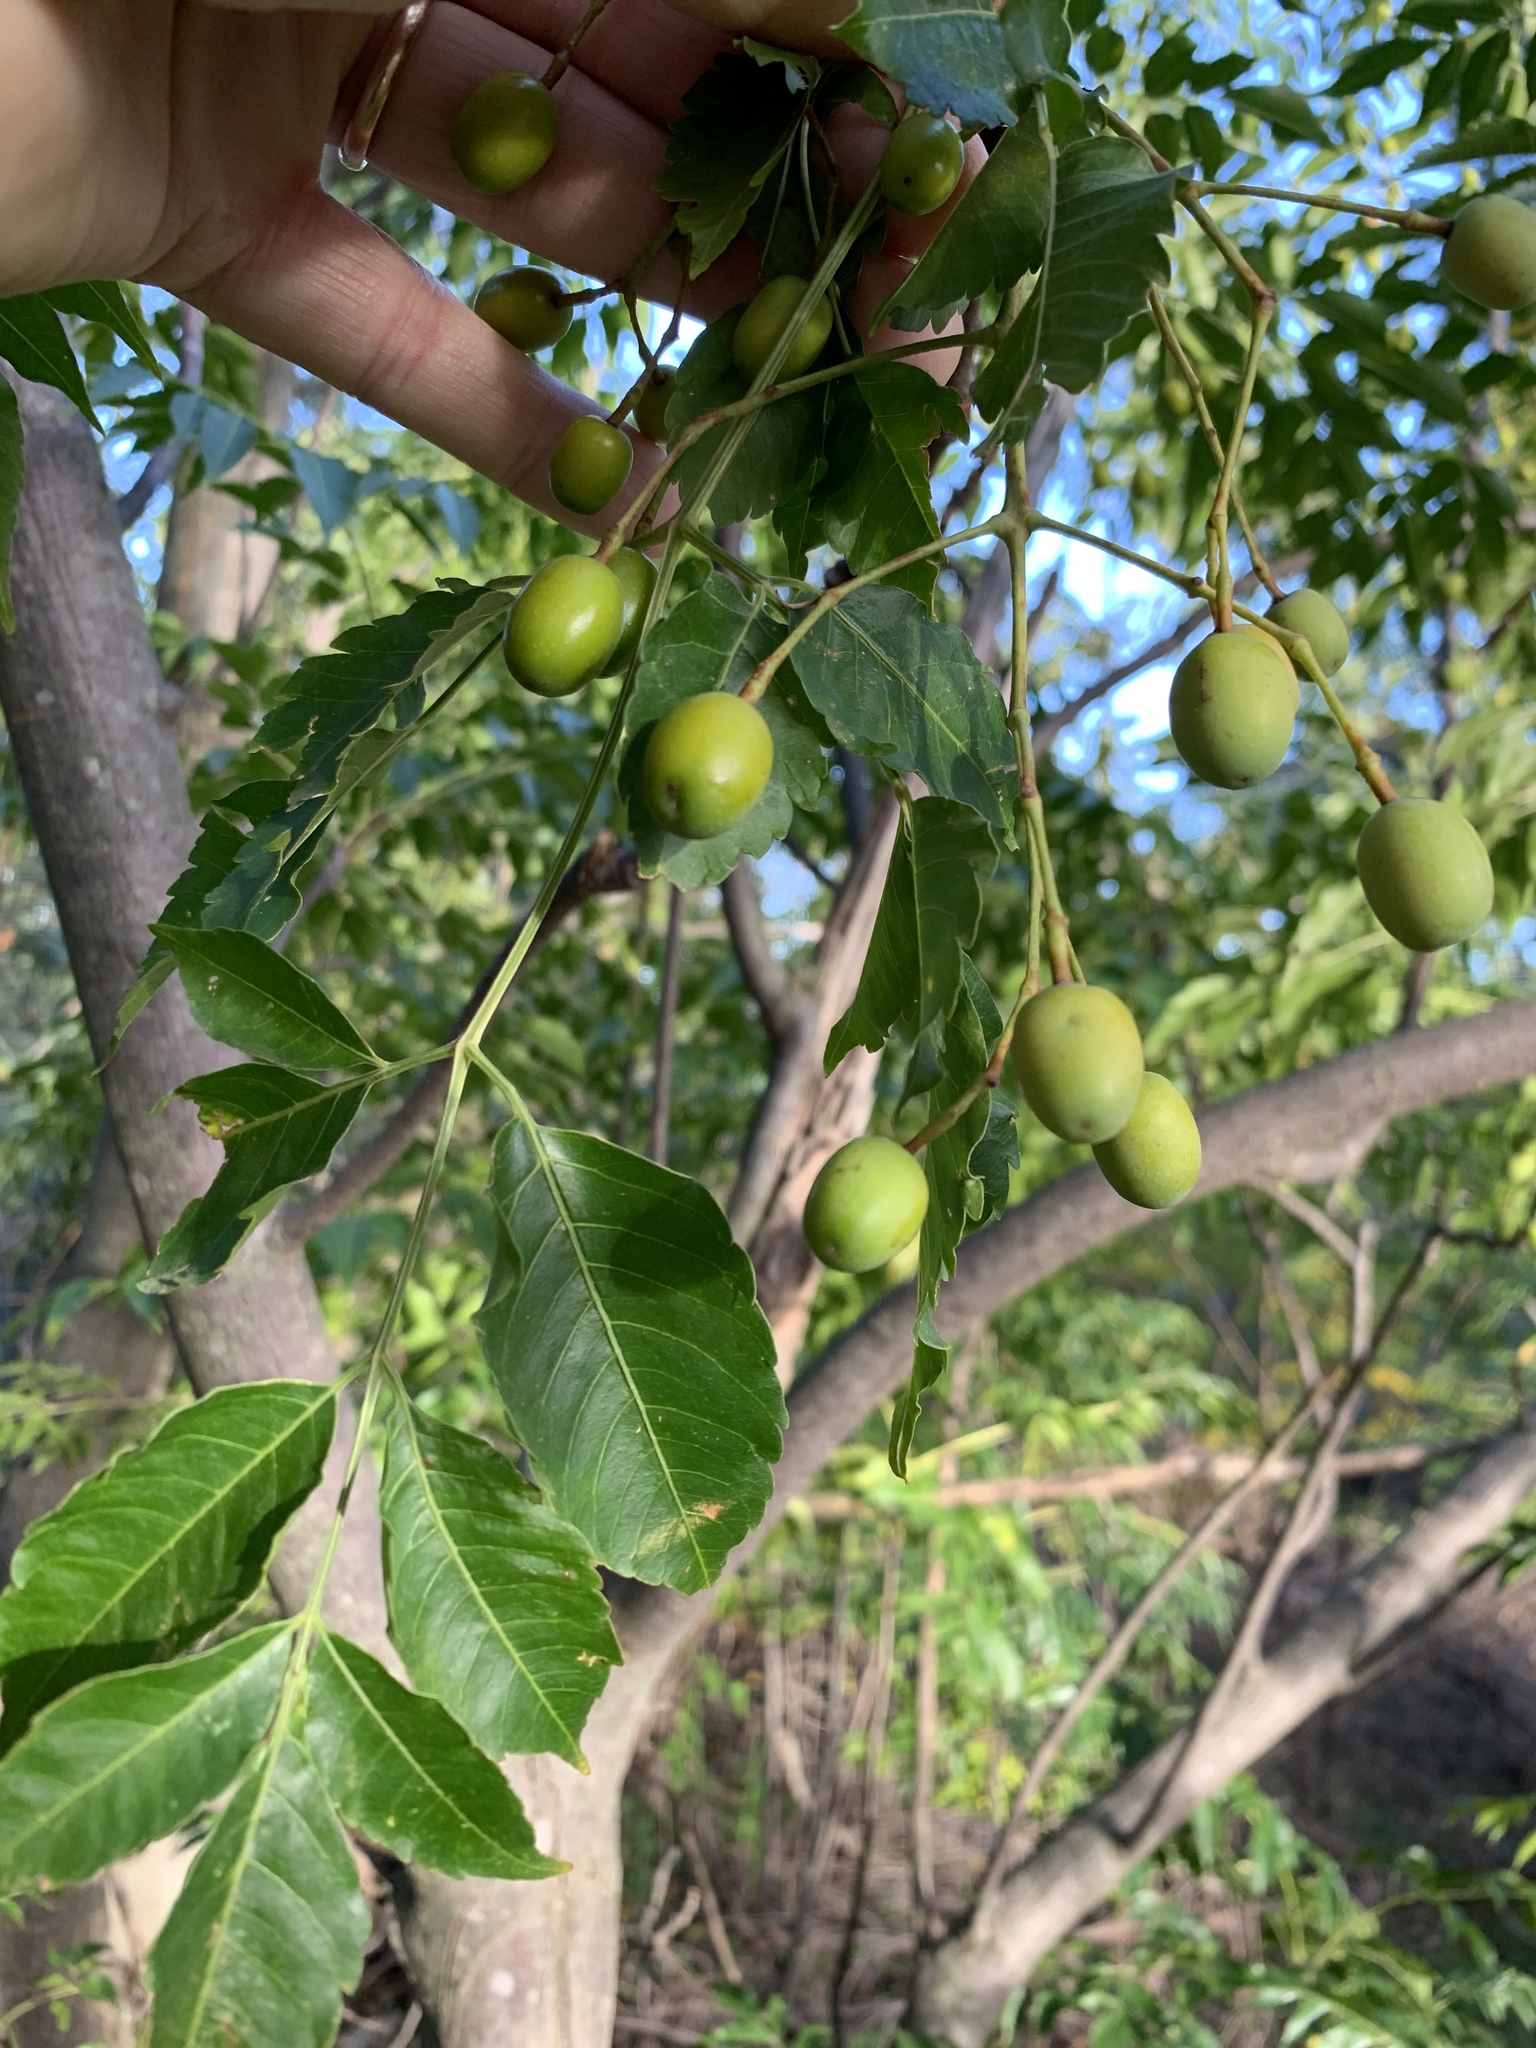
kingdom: Plantae
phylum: Tracheophyta
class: Magnoliopsida
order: Sapindales
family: Meliaceae
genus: Melia
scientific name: Melia azedarach
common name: Chinaberrytree
